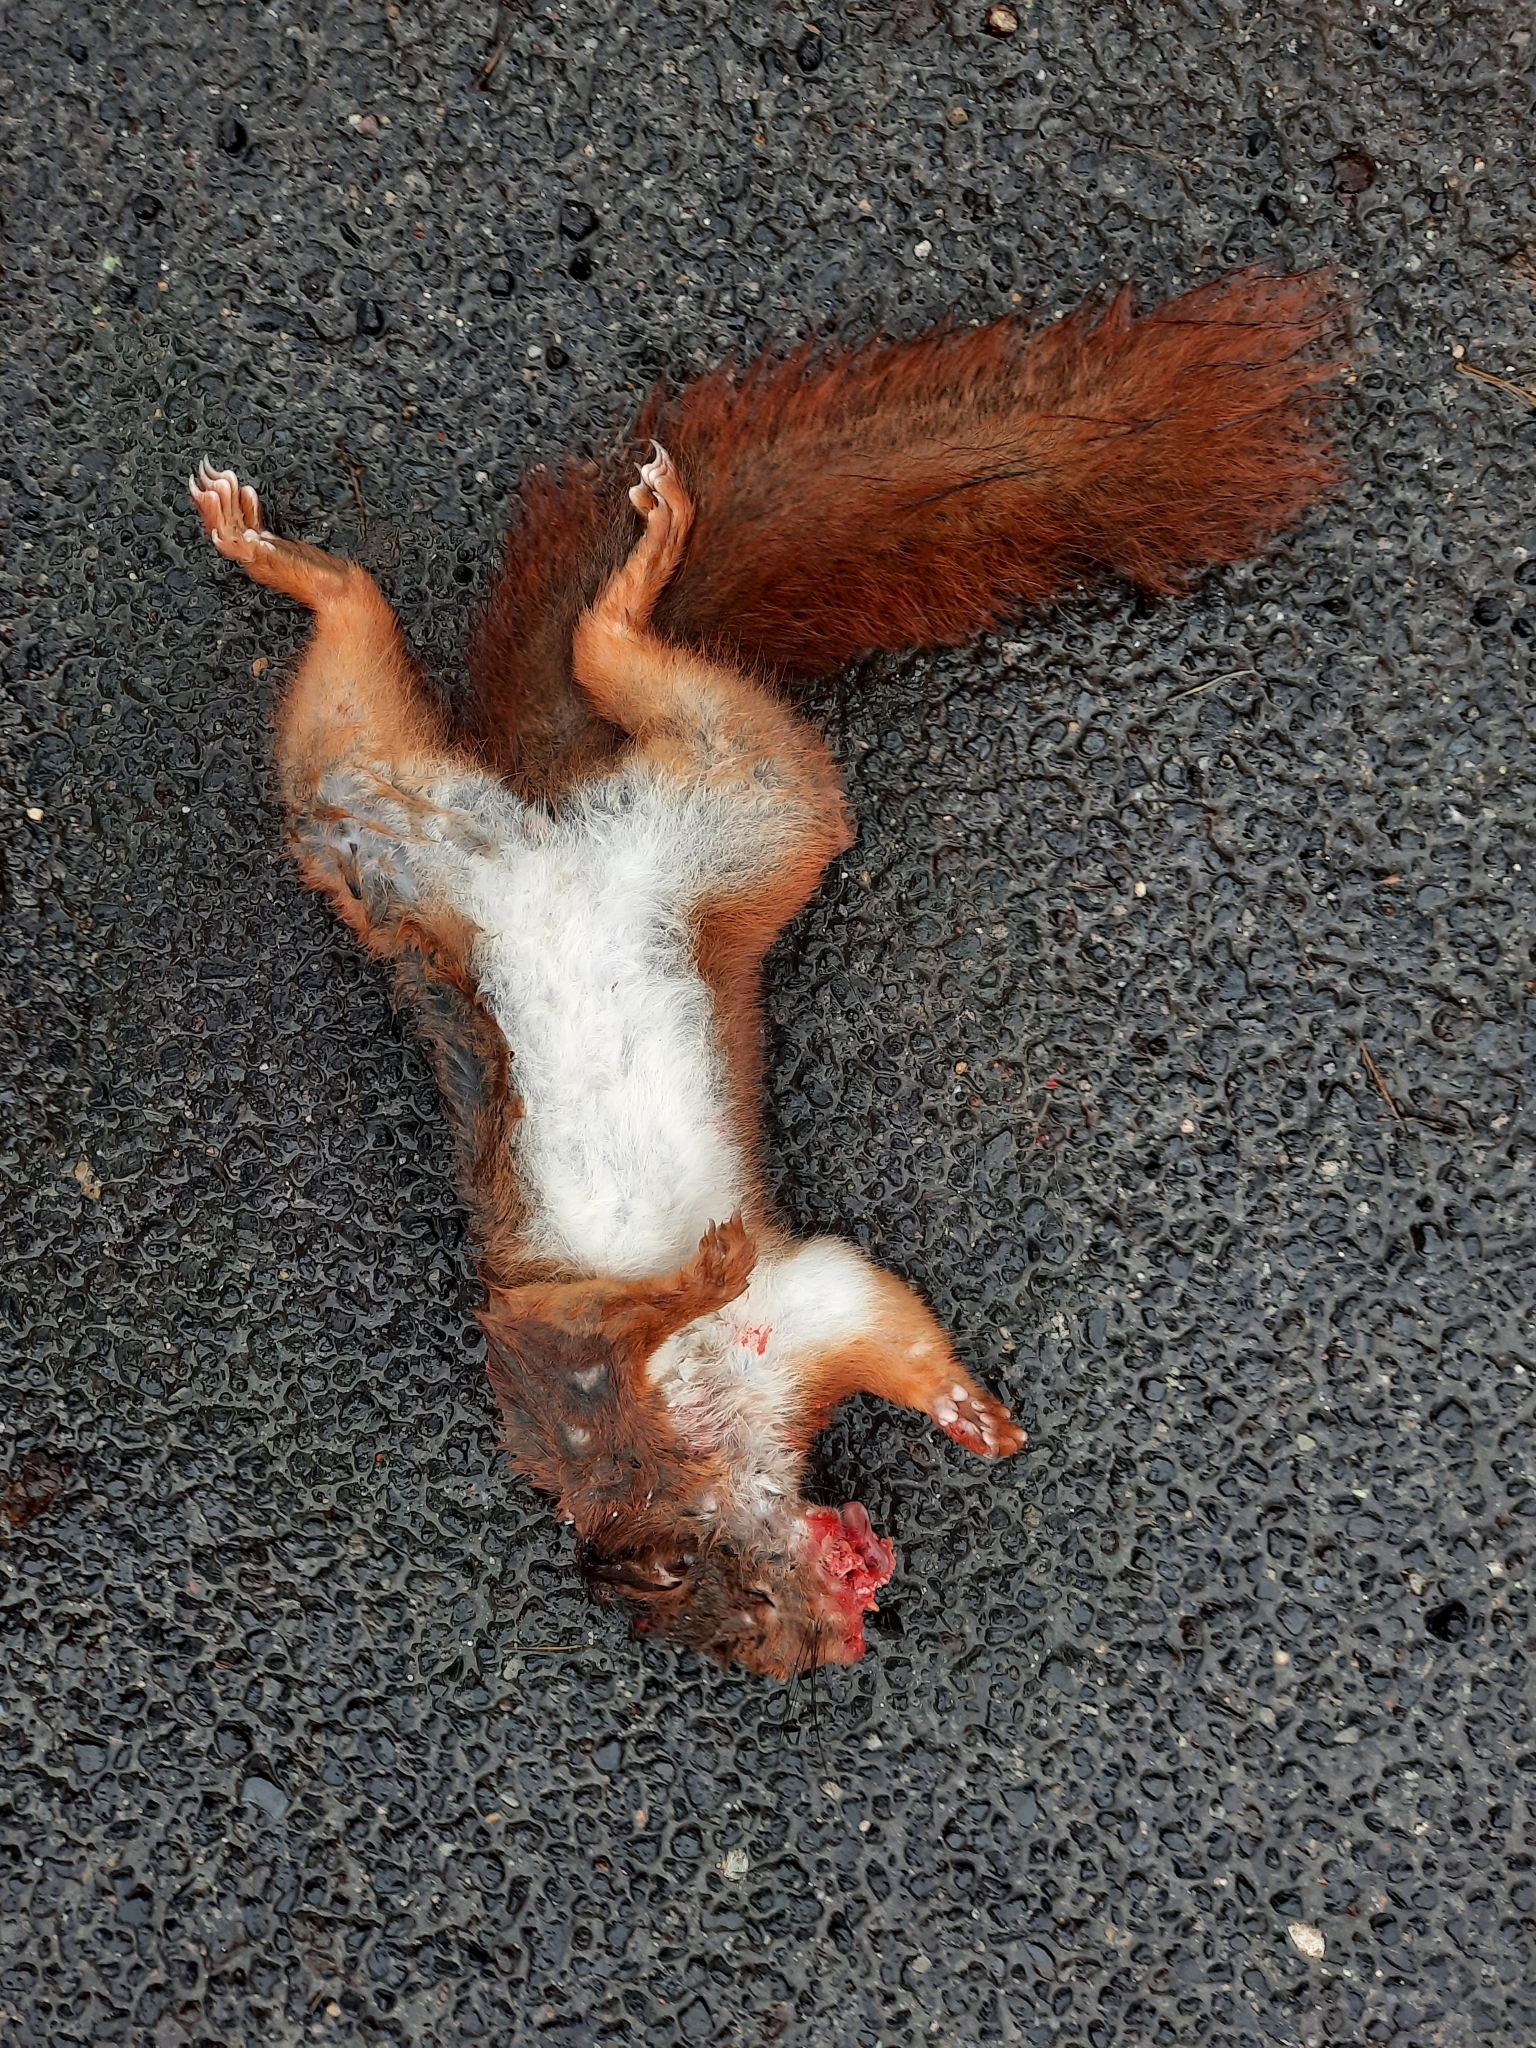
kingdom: Animalia
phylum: Chordata
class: Mammalia
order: Rodentia
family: Sciuridae
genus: Sciurus
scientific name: Sciurus vulgaris
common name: Eurasian red squirrel
